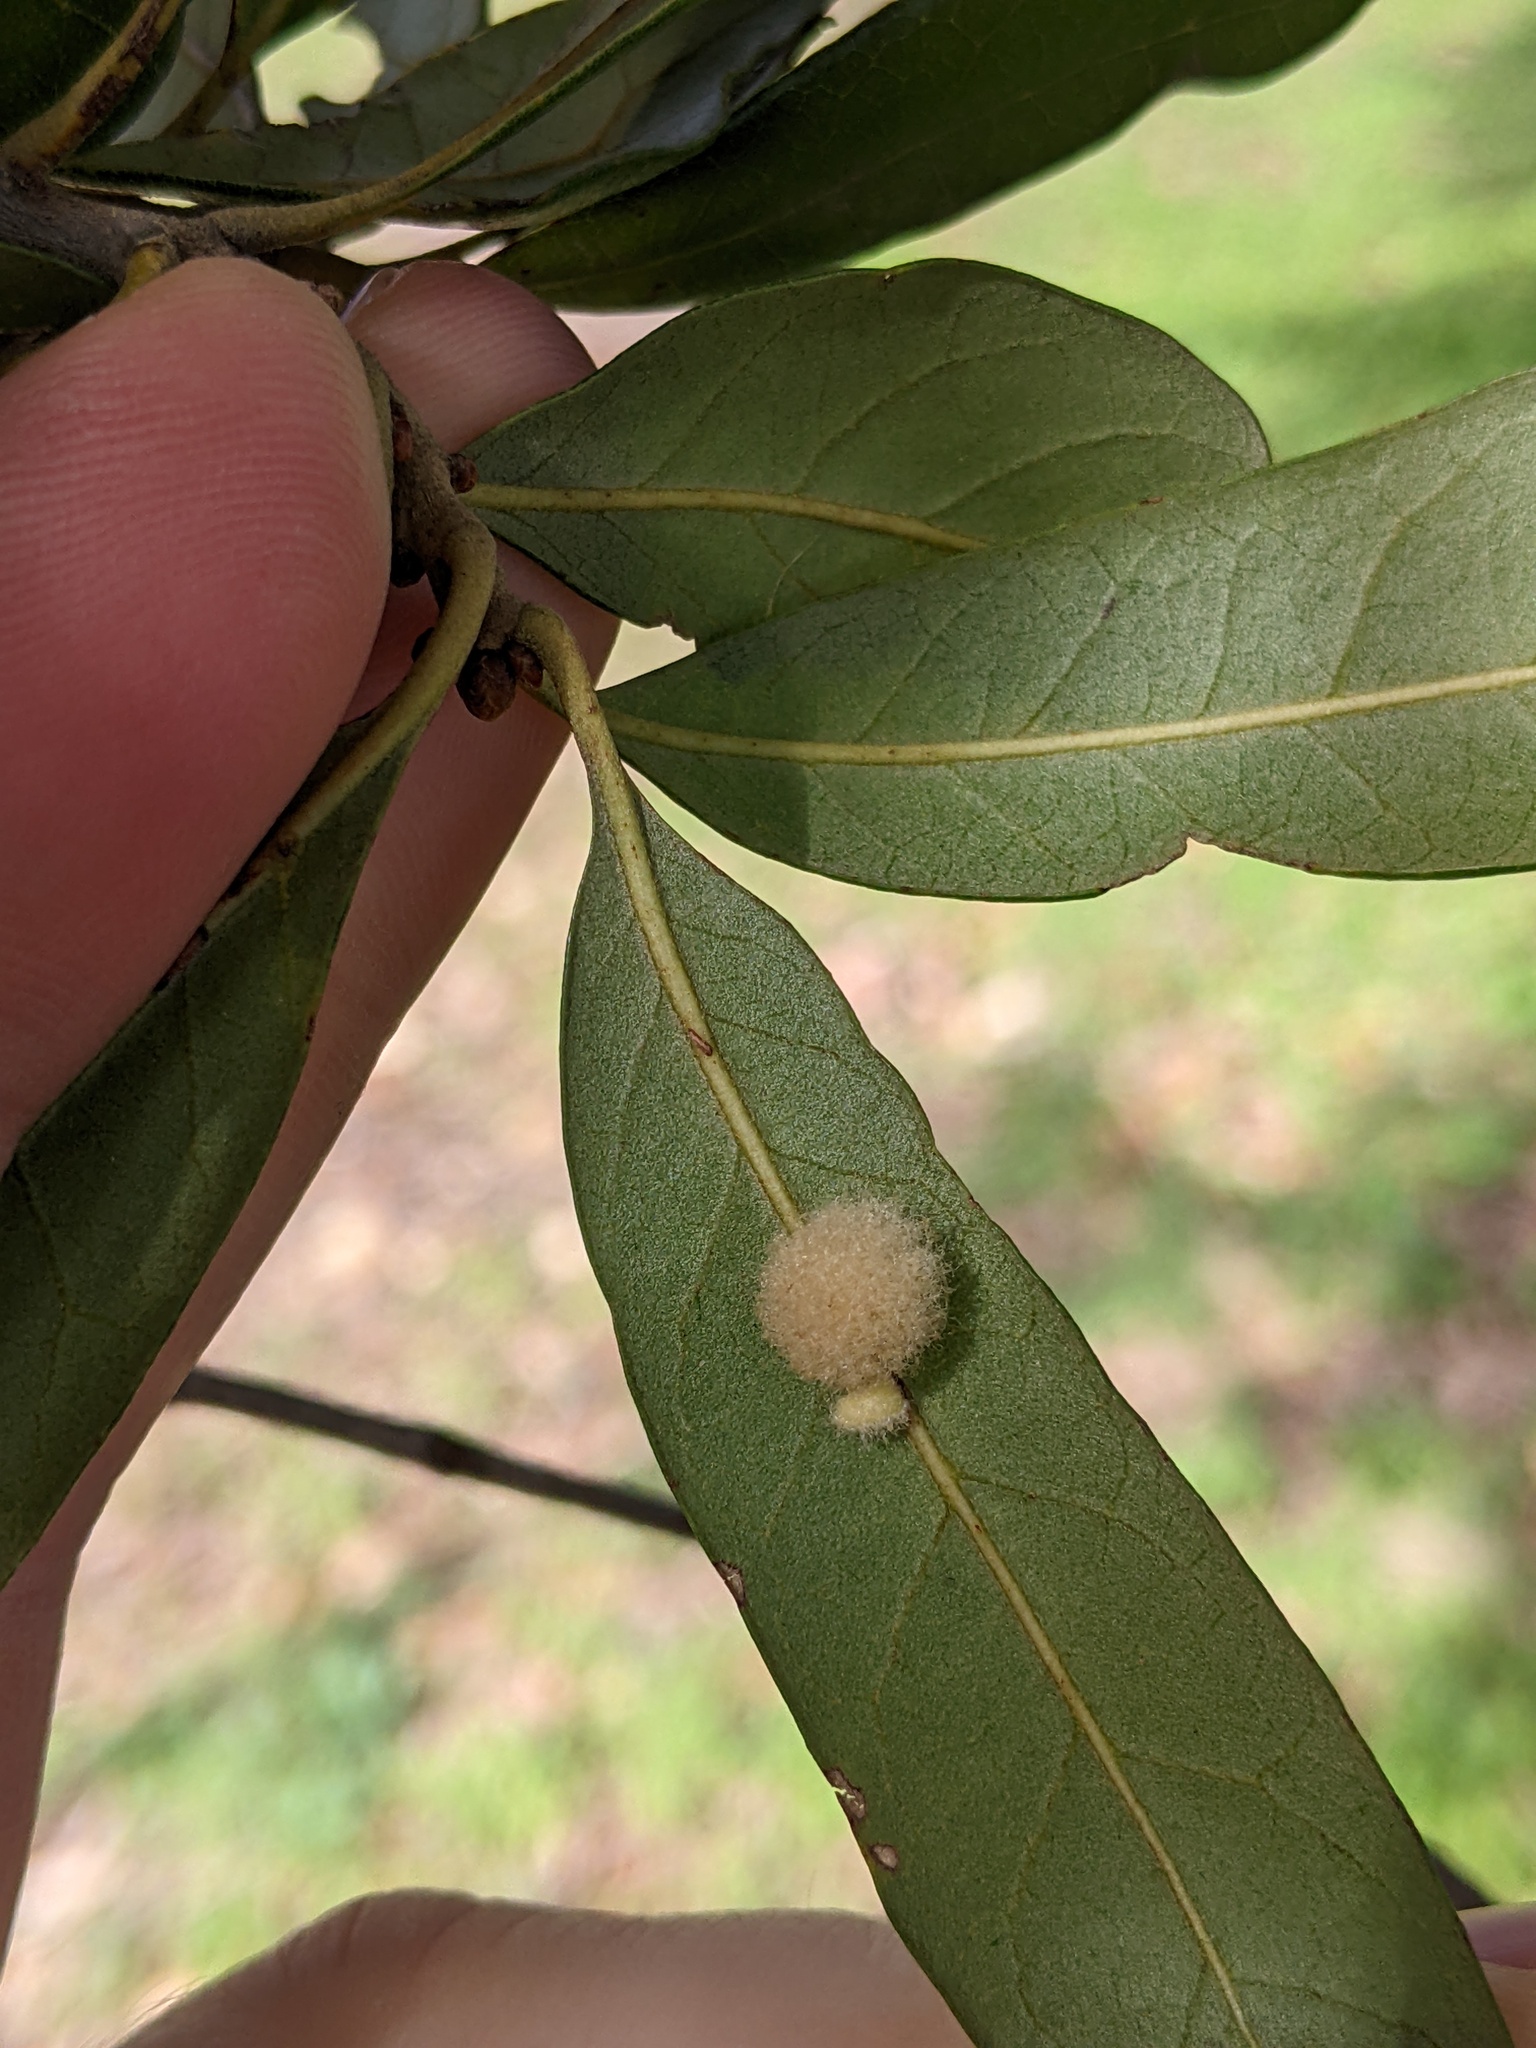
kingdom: Animalia
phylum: Arthropoda
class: Insecta
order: Hymenoptera
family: Cynipidae
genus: Andricus
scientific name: Andricus Druon quercuslanigerum
